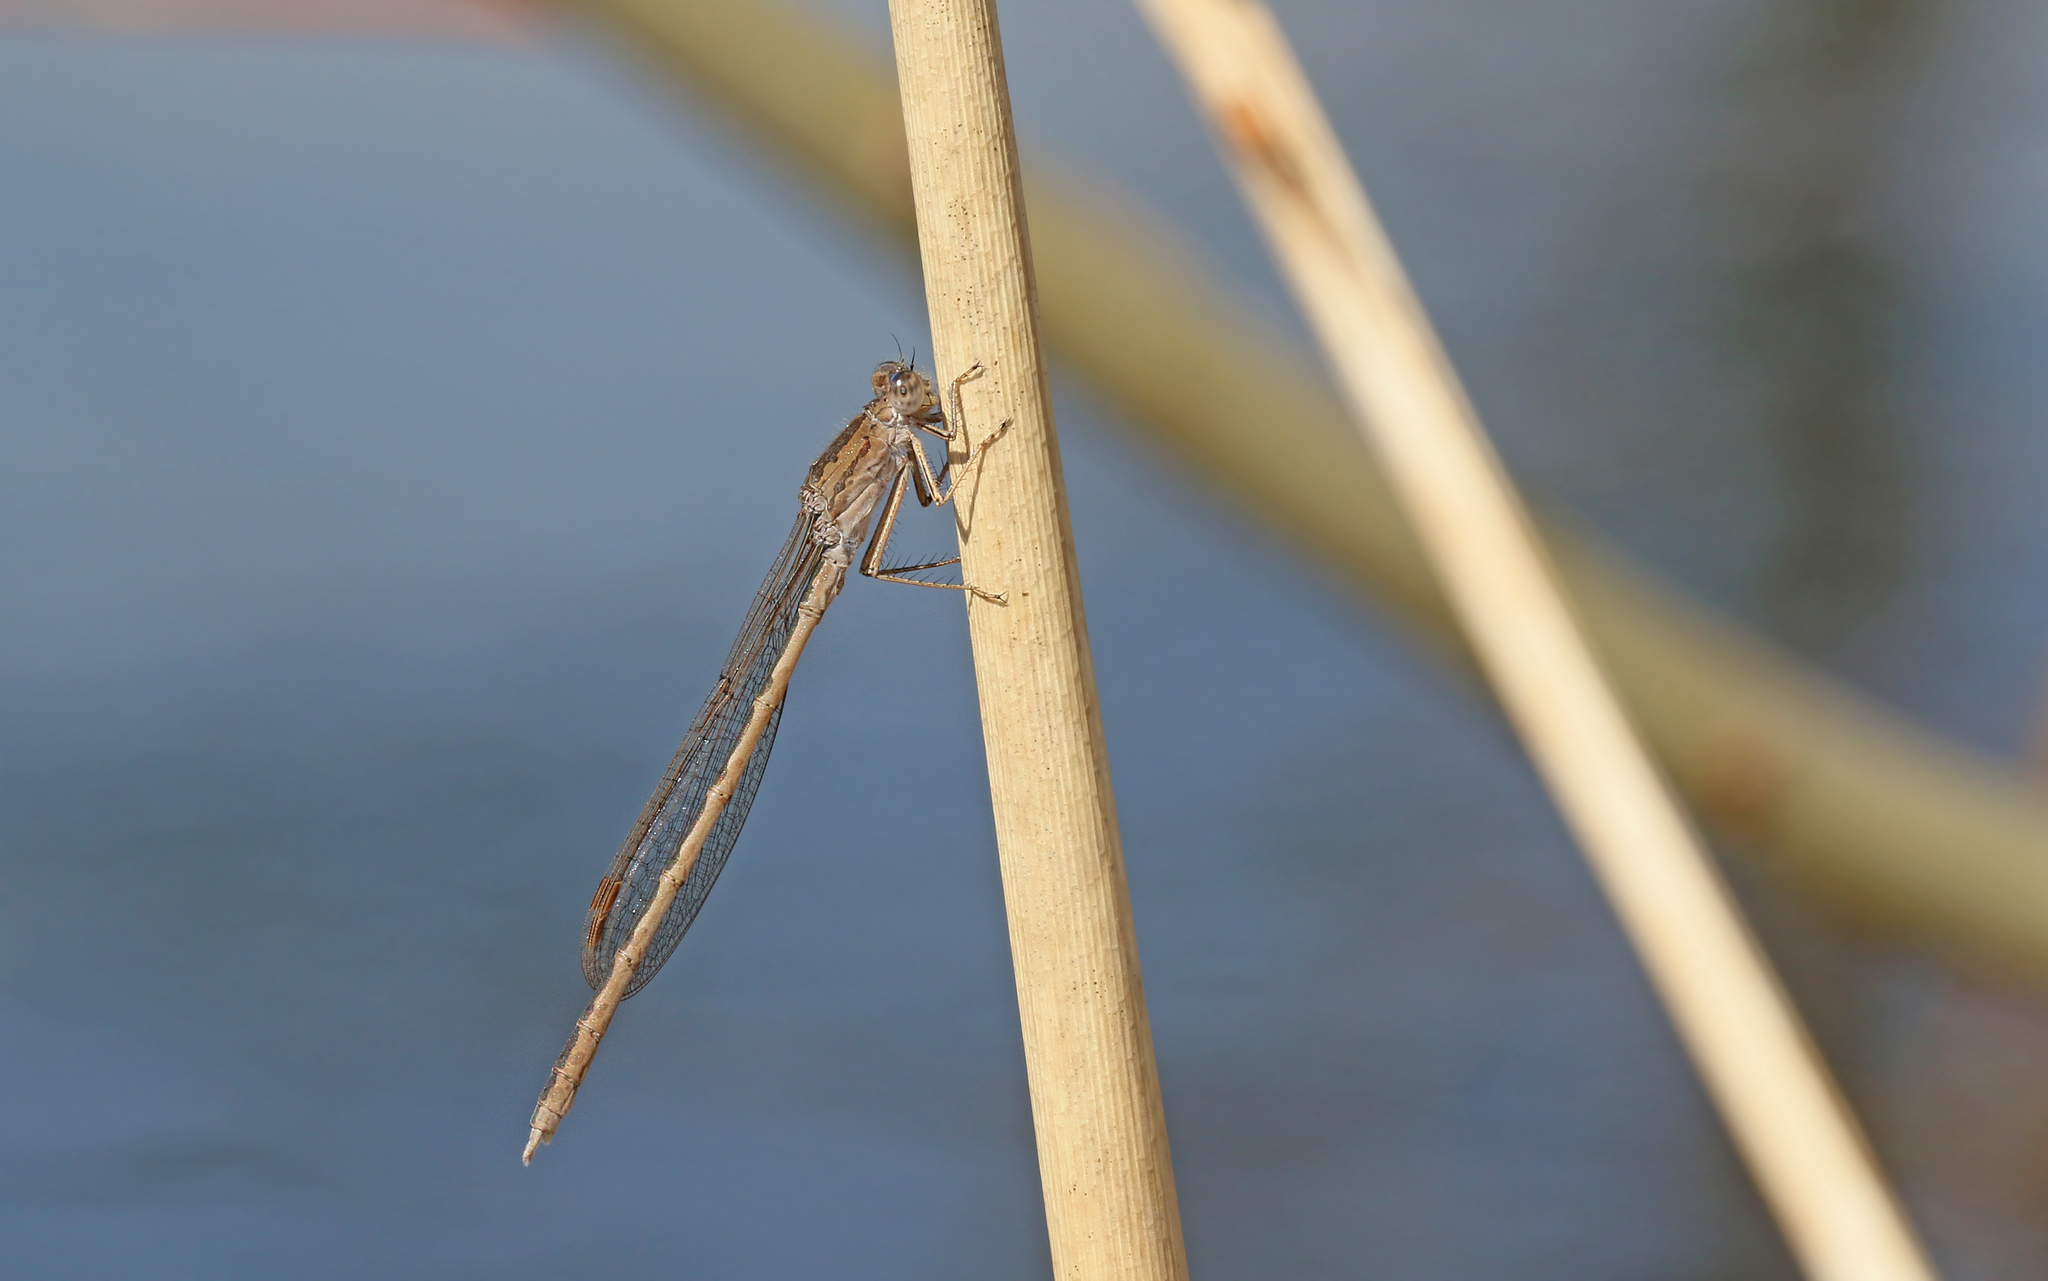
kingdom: Animalia
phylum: Arthropoda
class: Insecta
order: Odonata
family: Lestidae
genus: Sympecma
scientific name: Sympecma paedisca
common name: Siberian winter damsel
